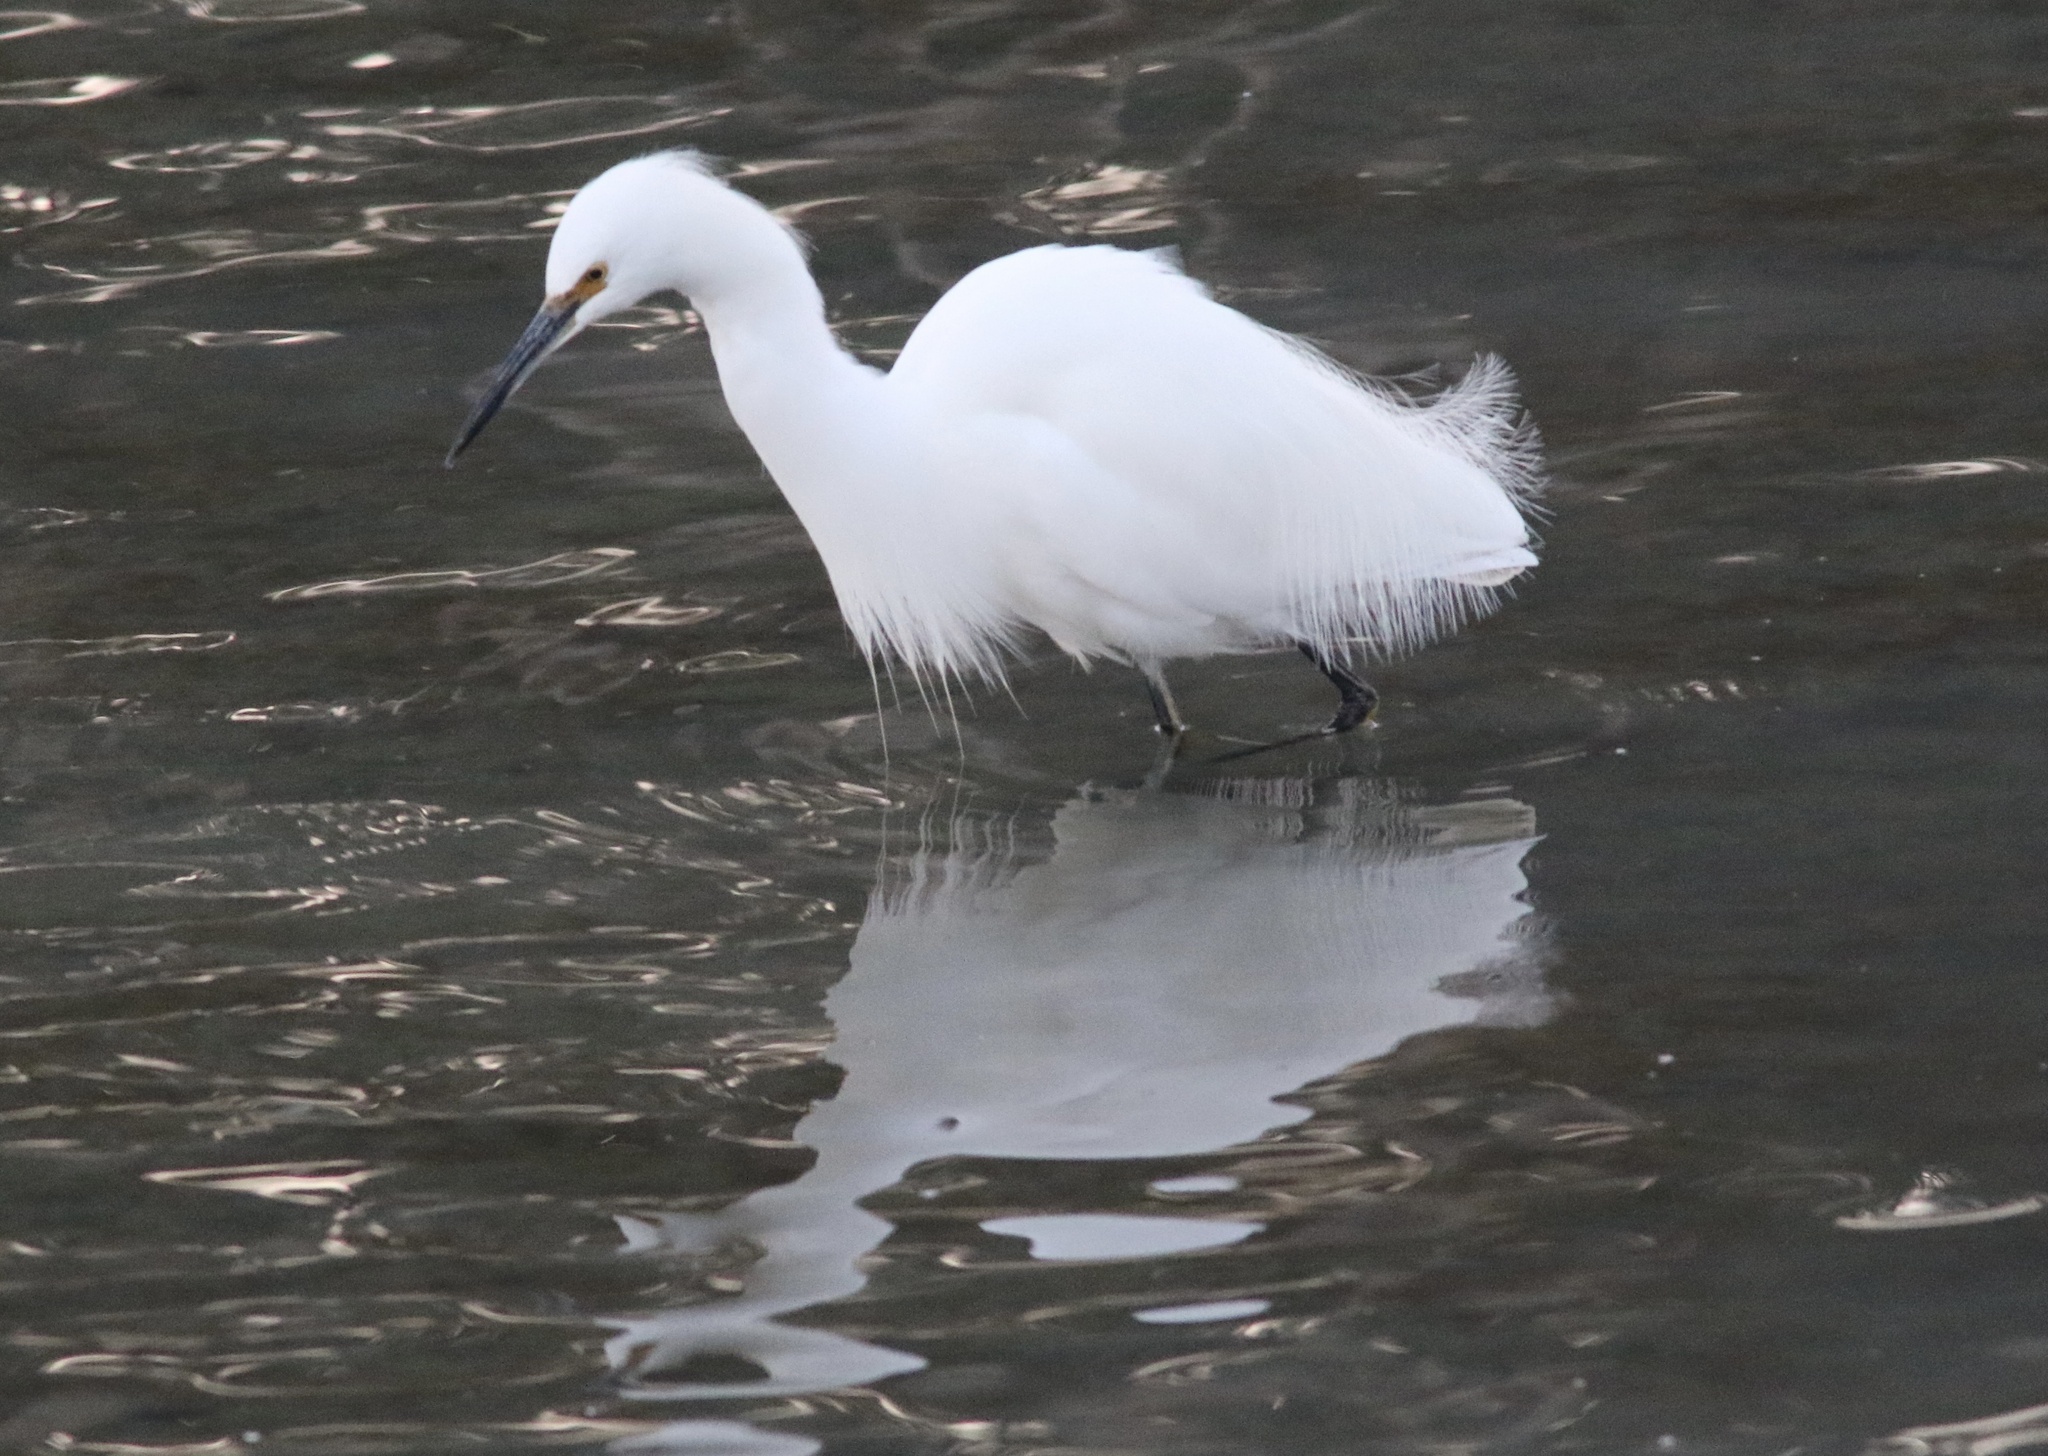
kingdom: Animalia
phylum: Chordata
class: Aves
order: Pelecaniformes
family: Ardeidae
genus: Egretta
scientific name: Egretta thula
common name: Snowy egret
